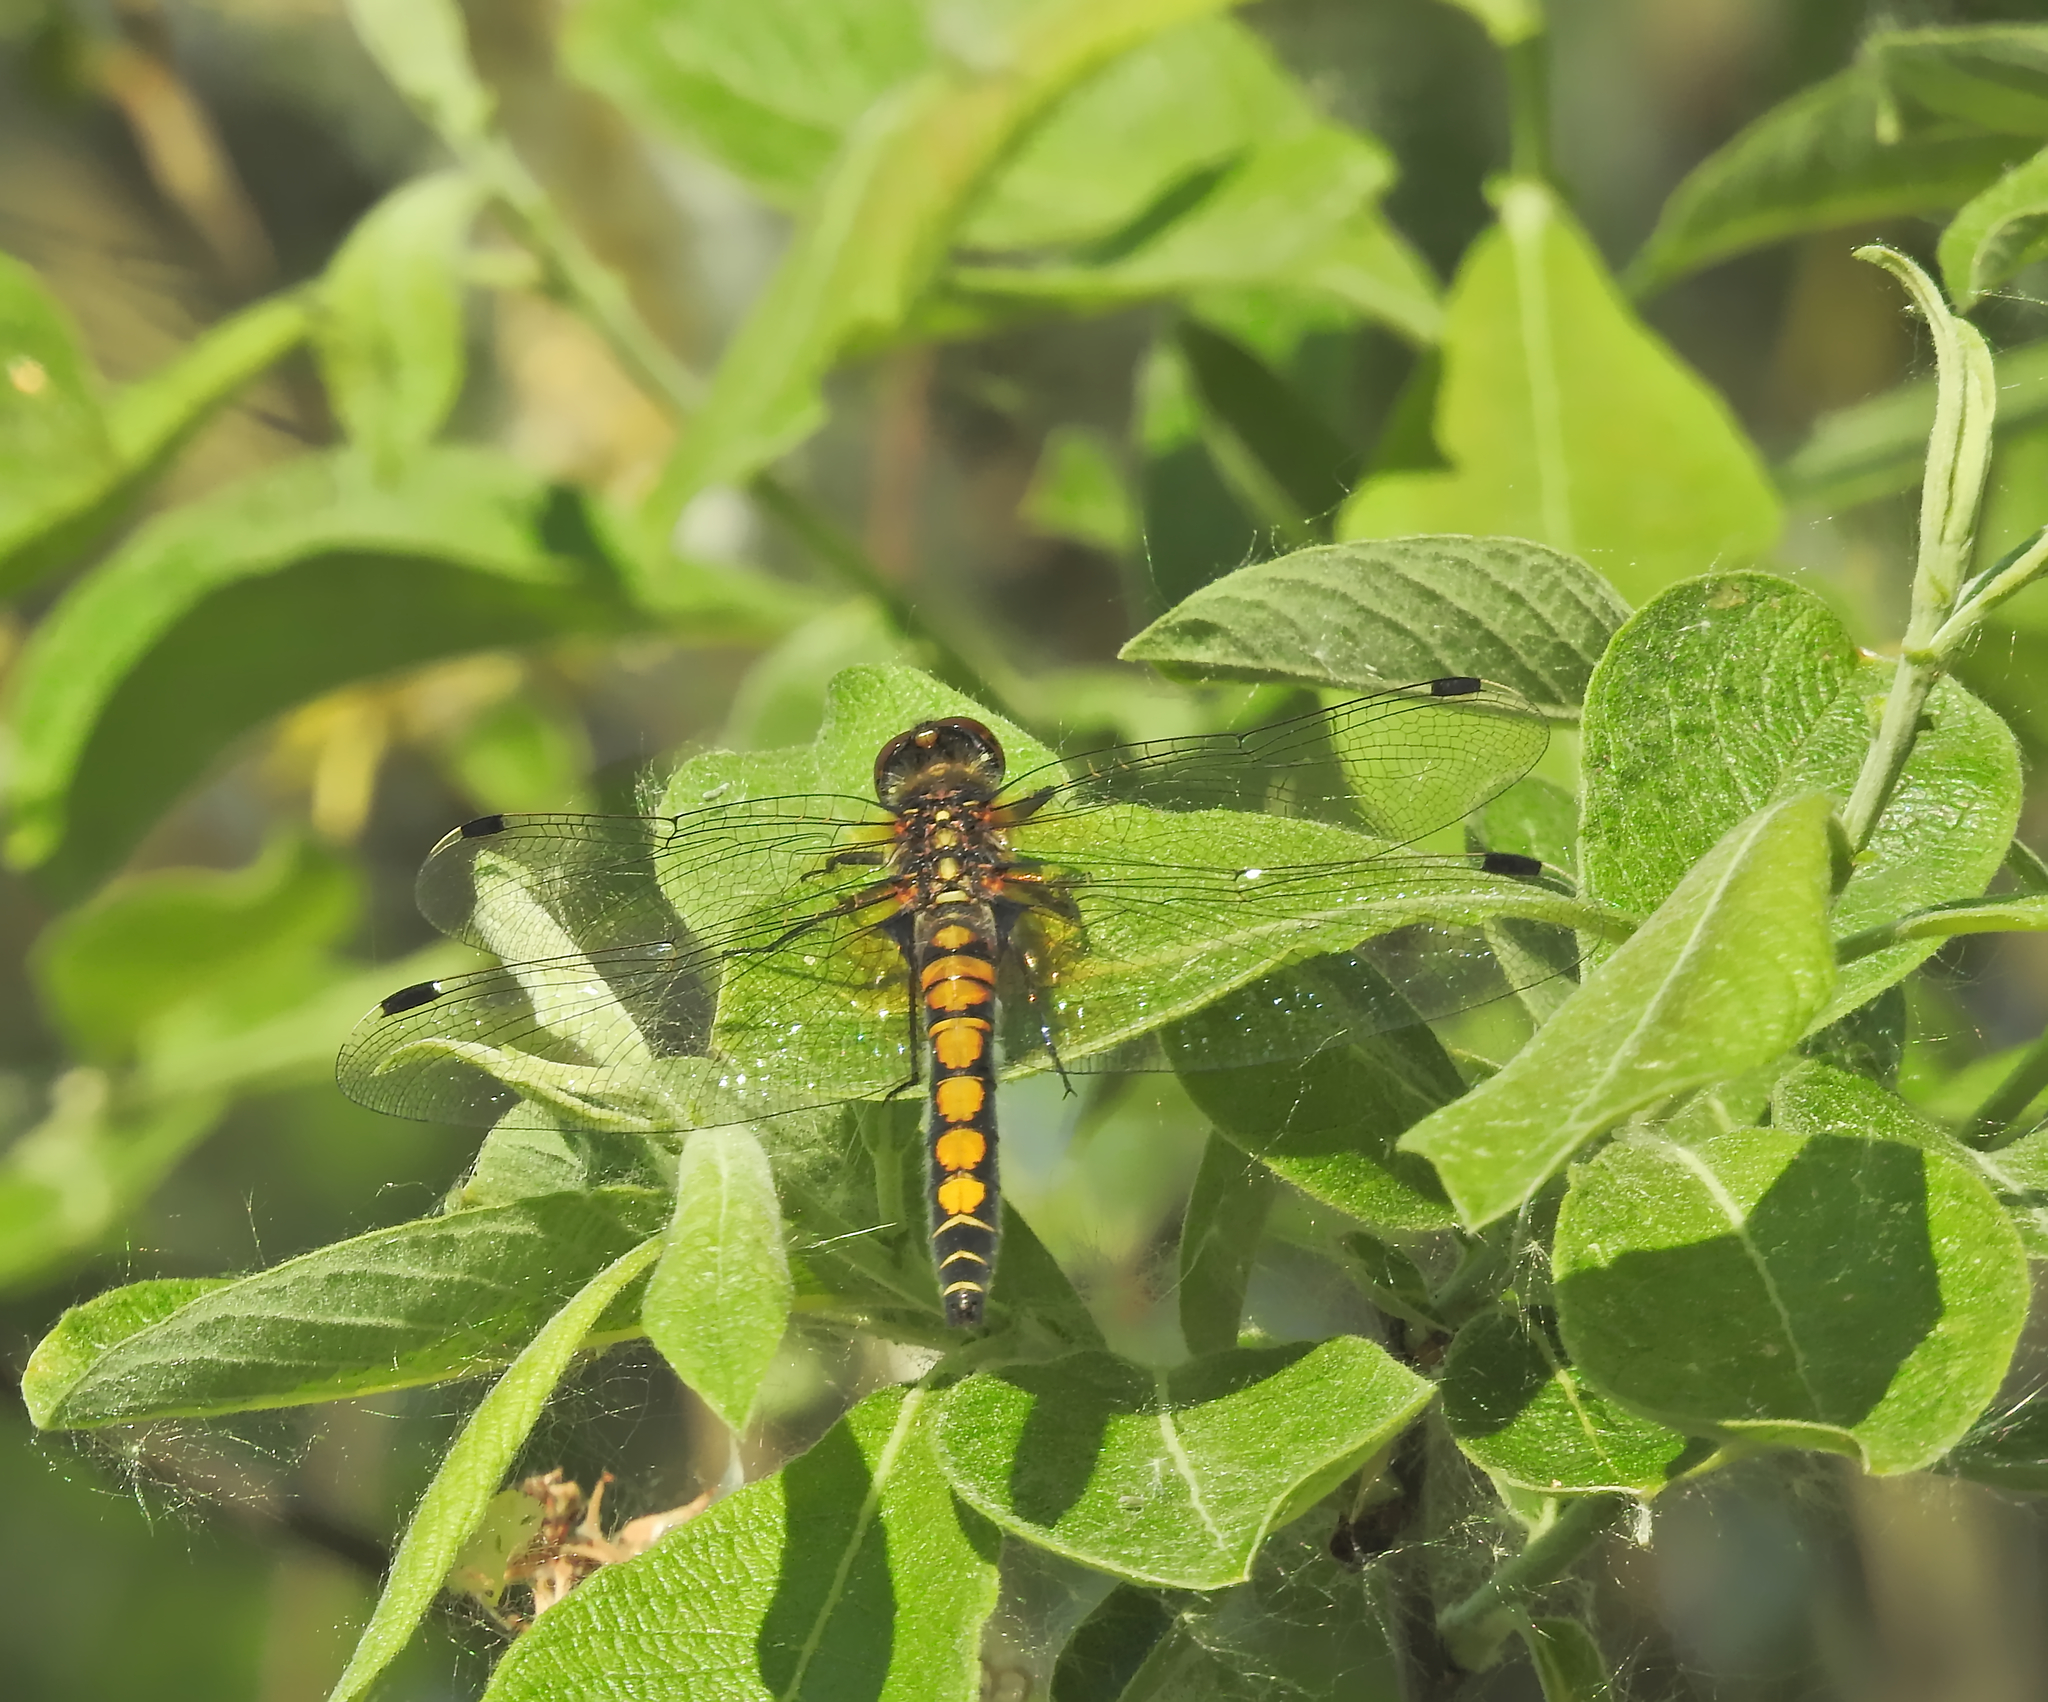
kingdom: Animalia
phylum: Arthropoda
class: Insecta
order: Odonata
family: Libellulidae
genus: Leucorrhinia
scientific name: Leucorrhinia pectoralis
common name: Yellow-spotted whiteface
